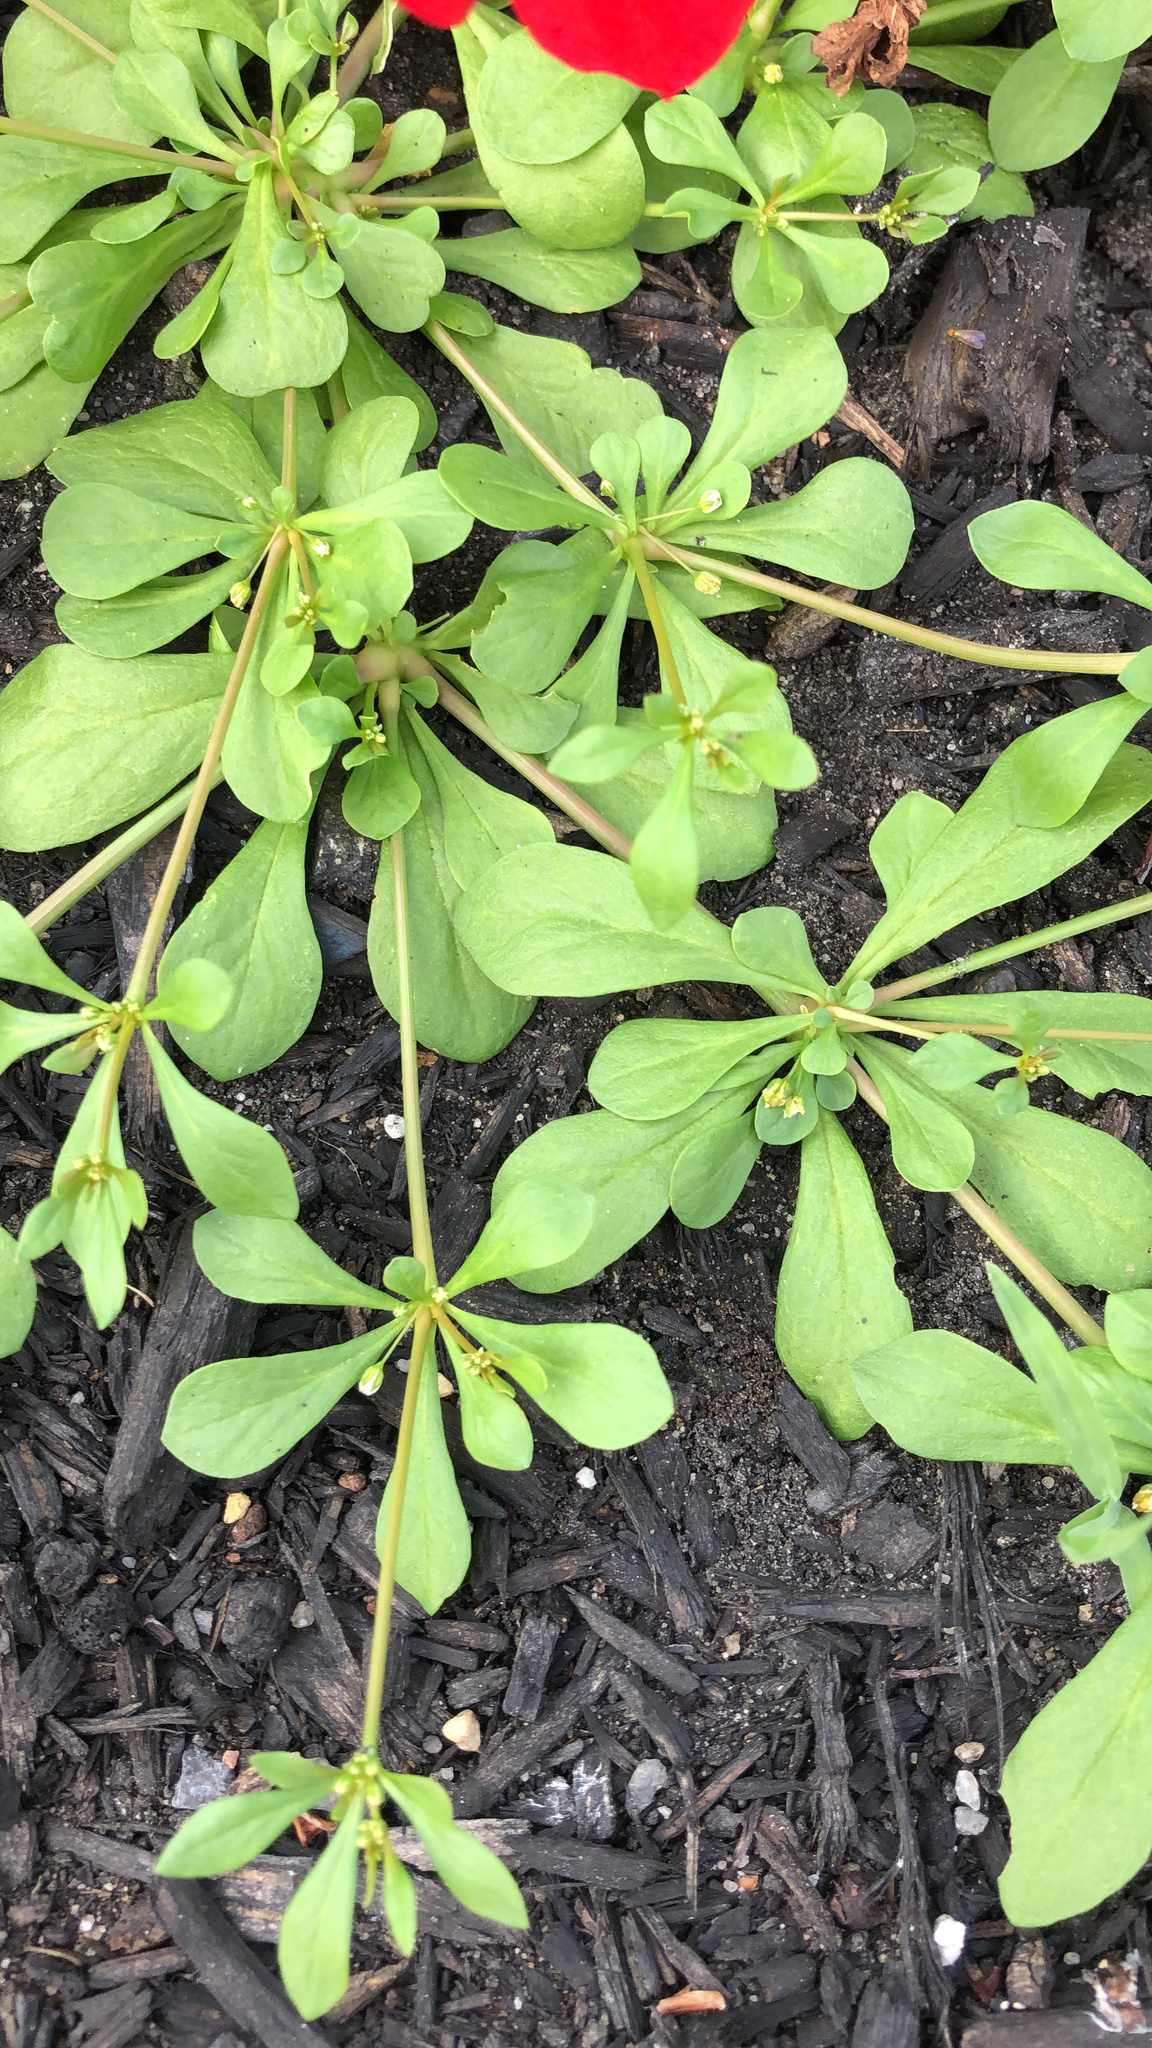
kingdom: Plantae
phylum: Tracheophyta
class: Magnoliopsida
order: Caryophyllales
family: Molluginaceae
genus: Mollugo
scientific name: Mollugo verticillata
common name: Green carpetweed
